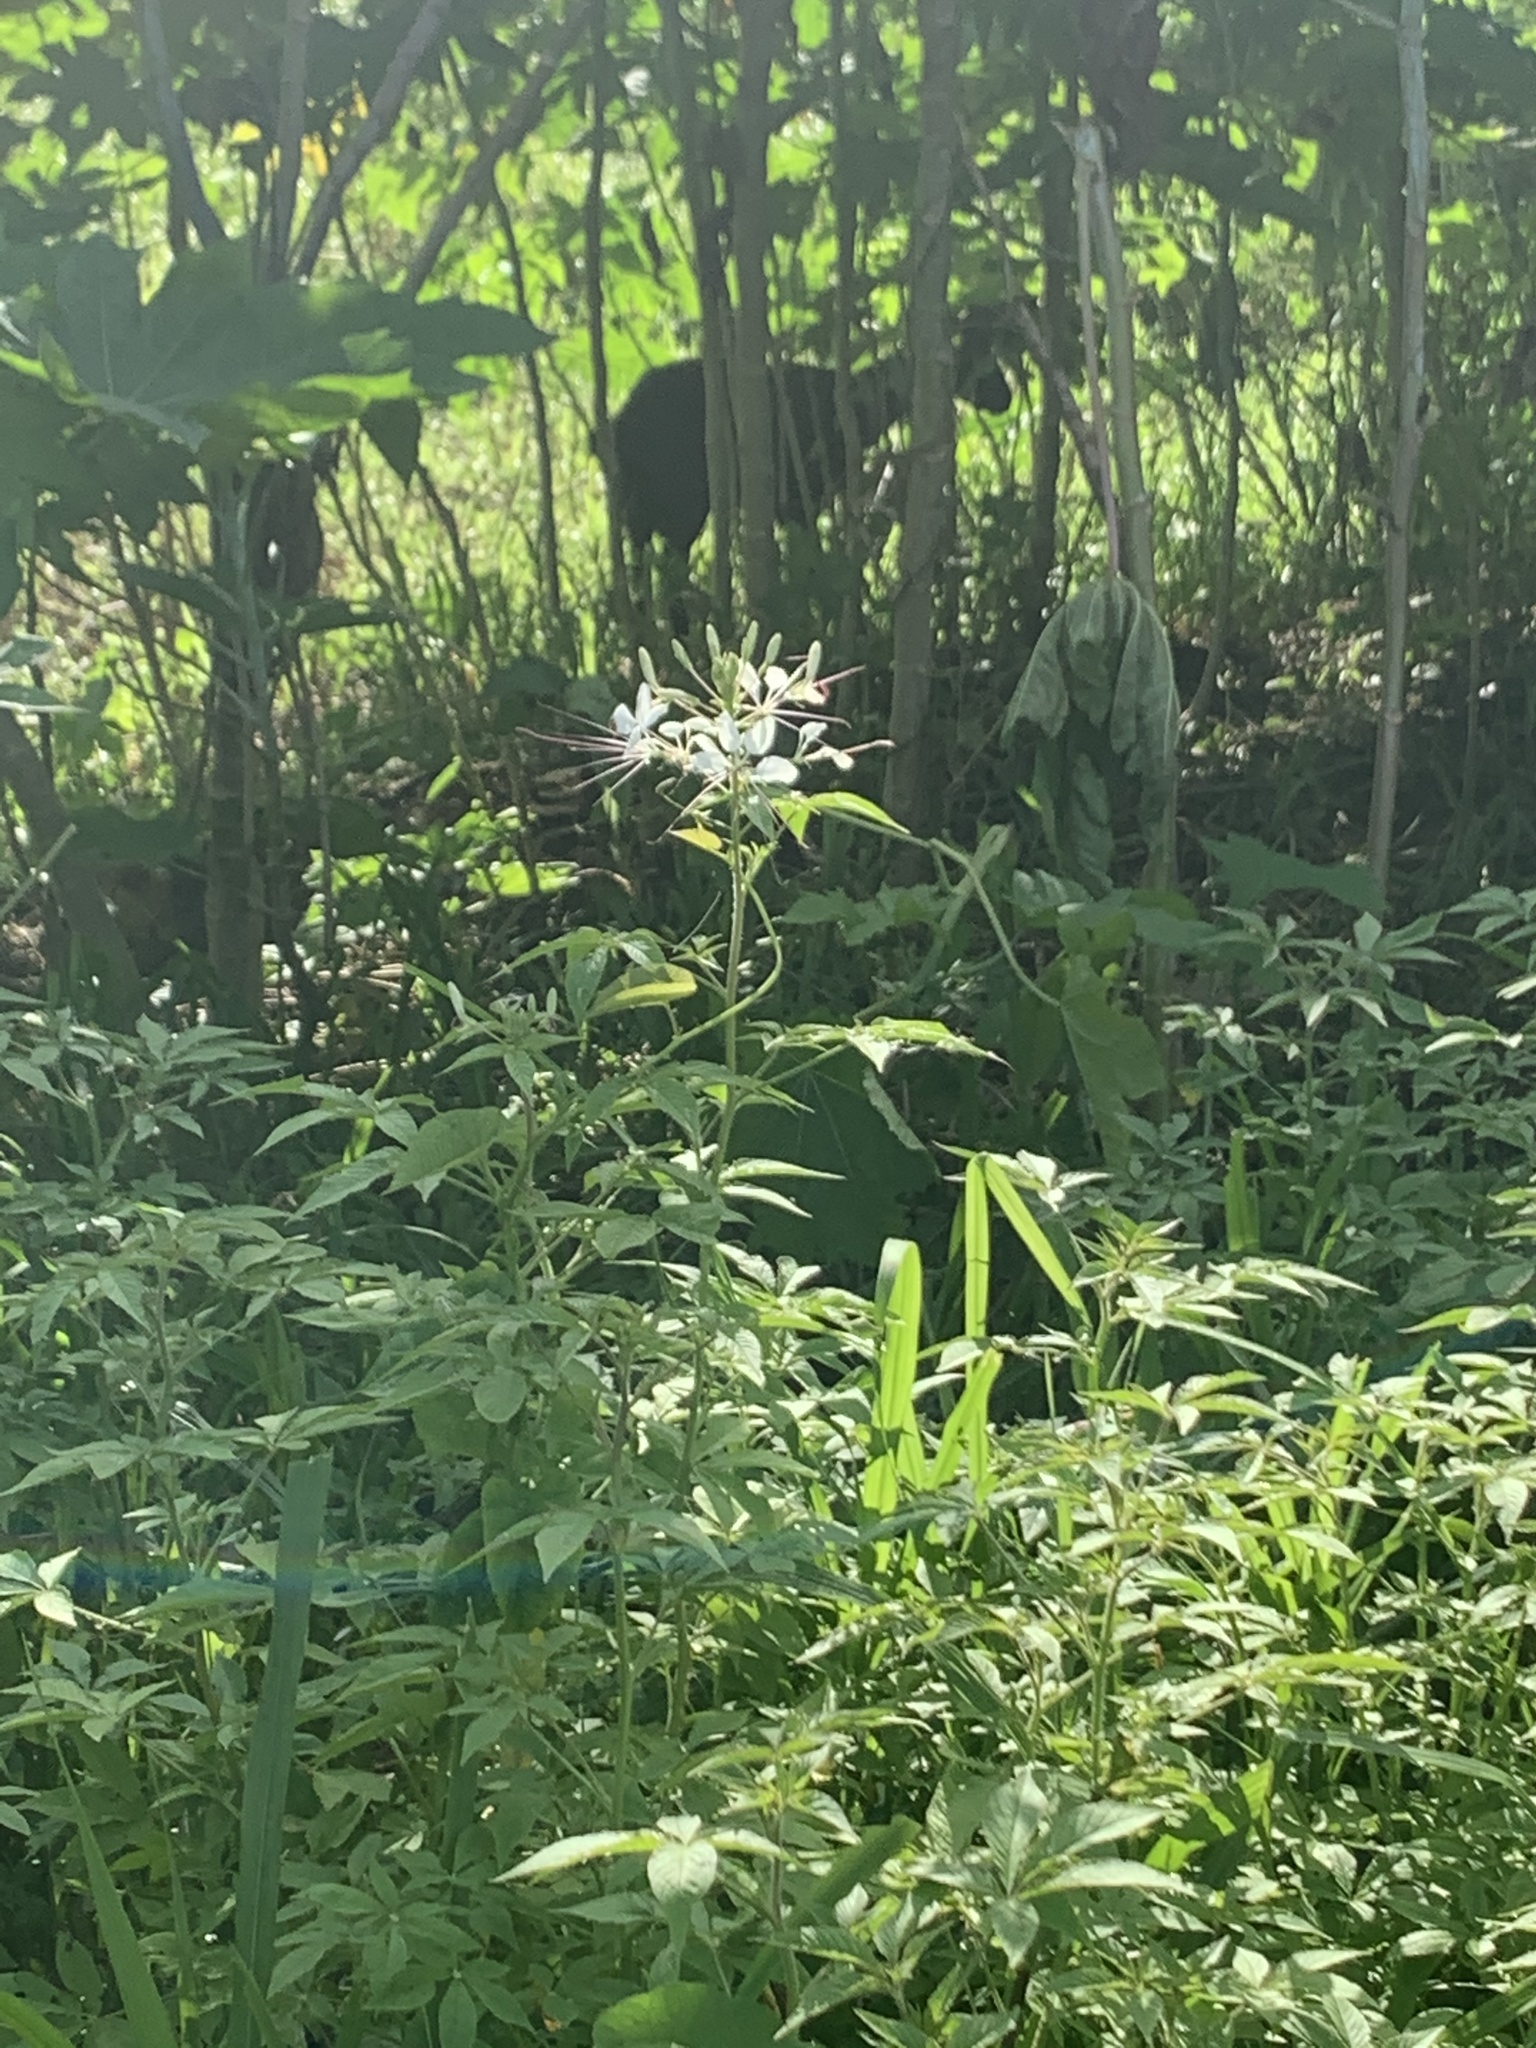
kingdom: Plantae
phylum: Tracheophyta
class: Magnoliopsida
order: Brassicales
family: Cleomaceae
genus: Gynandropsis
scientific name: Gynandropsis gynandra
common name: Spiderwisp
